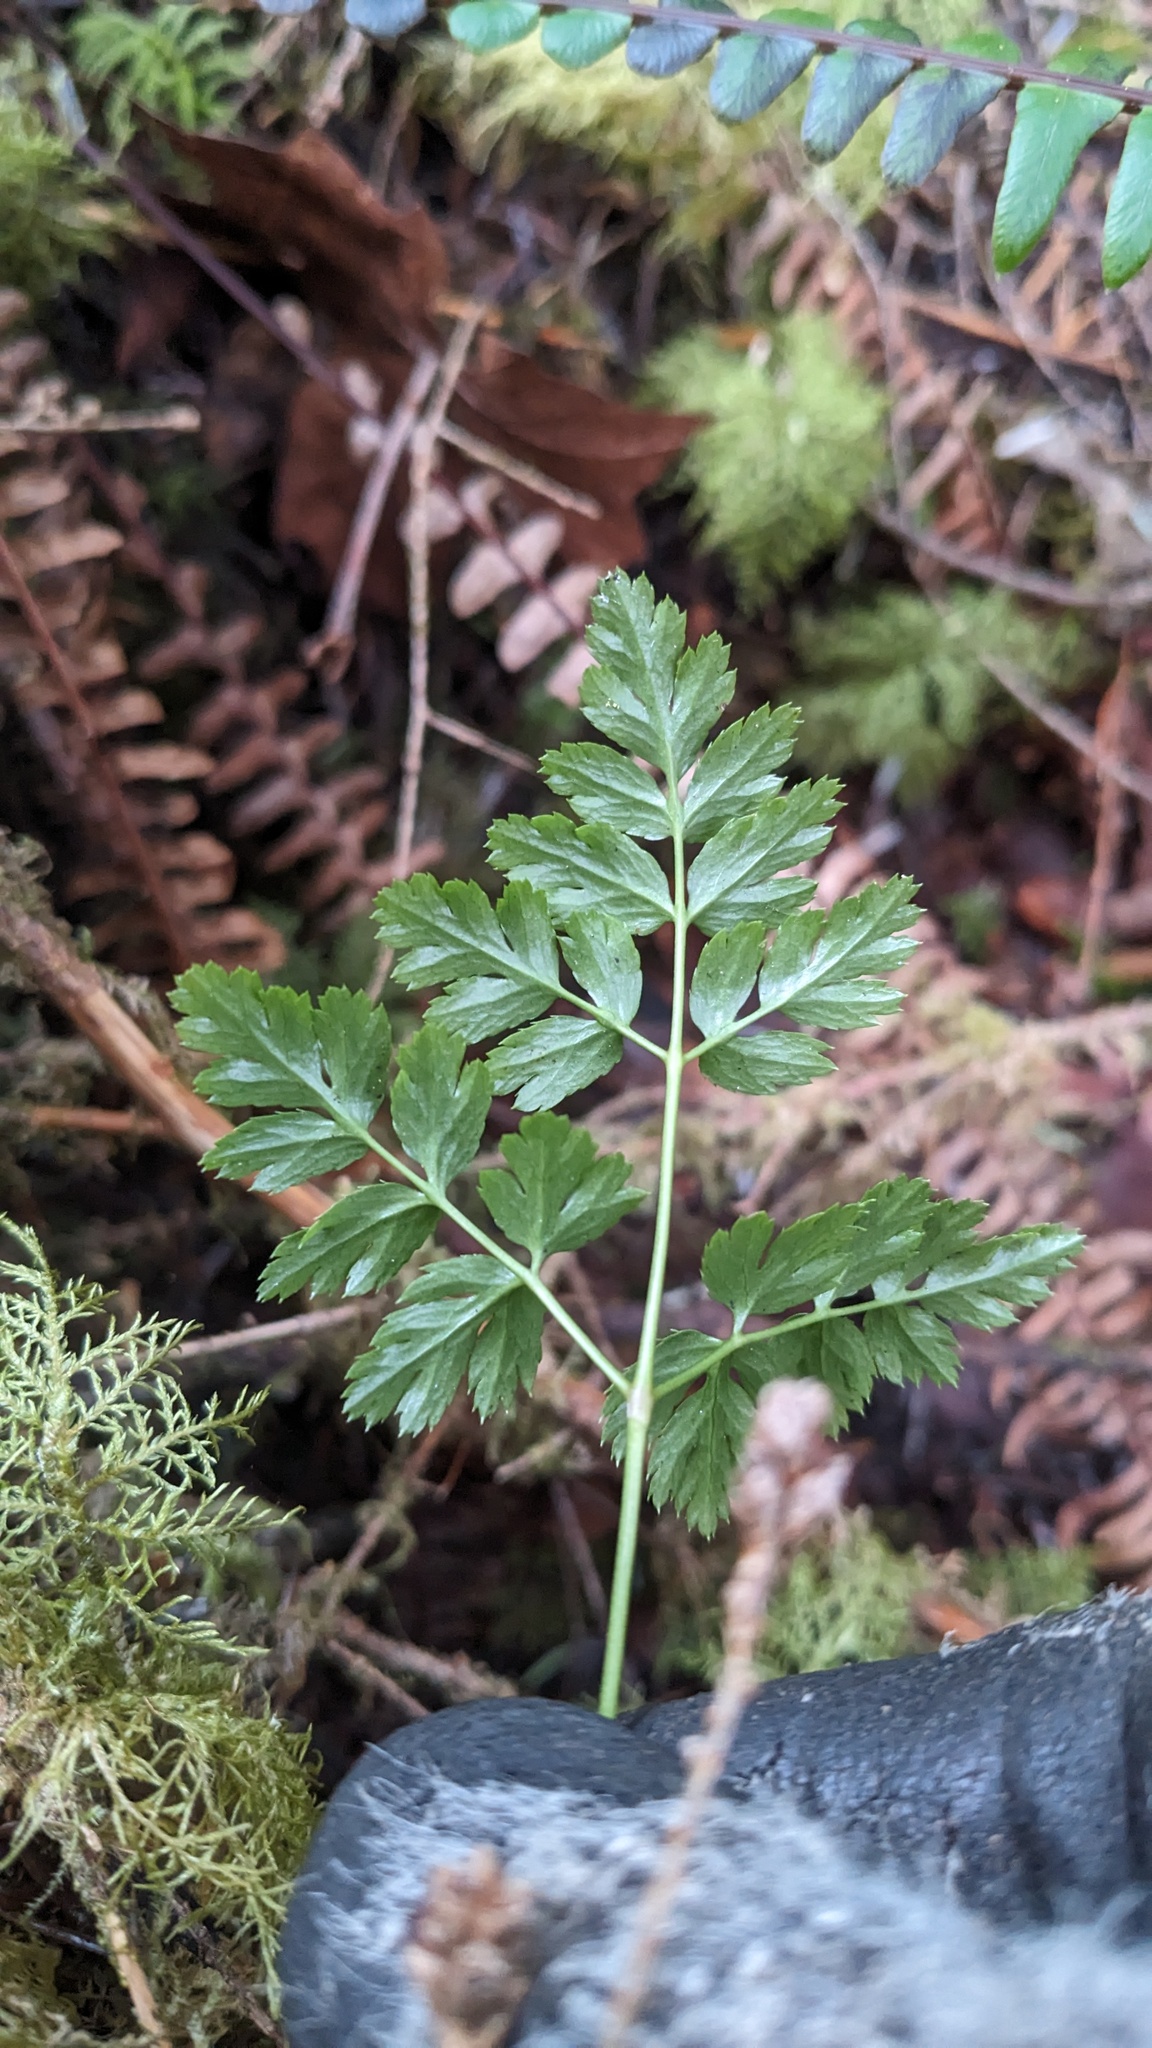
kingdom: Plantae
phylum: Tracheophyta
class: Magnoliopsida
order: Ranunculales
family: Ranunculaceae
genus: Coptis
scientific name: Coptis aspleniifolia
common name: Fern-leaved goldthread
